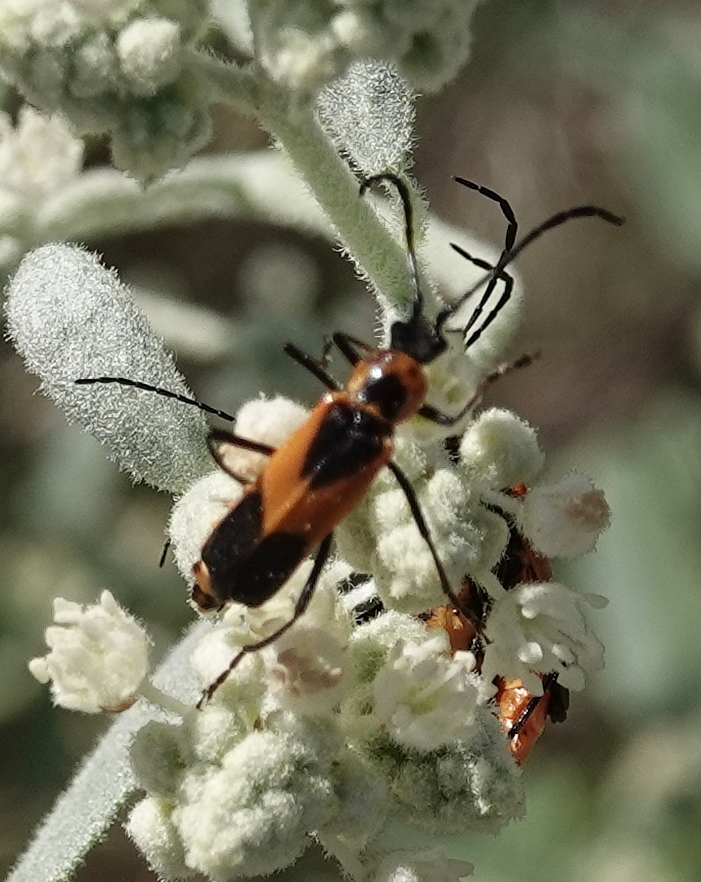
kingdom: Animalia
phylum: Arthropoda
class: Insecta
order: Coleoptera
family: Cantharidae
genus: Chauliognathus
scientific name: Chauliognathus basalis
